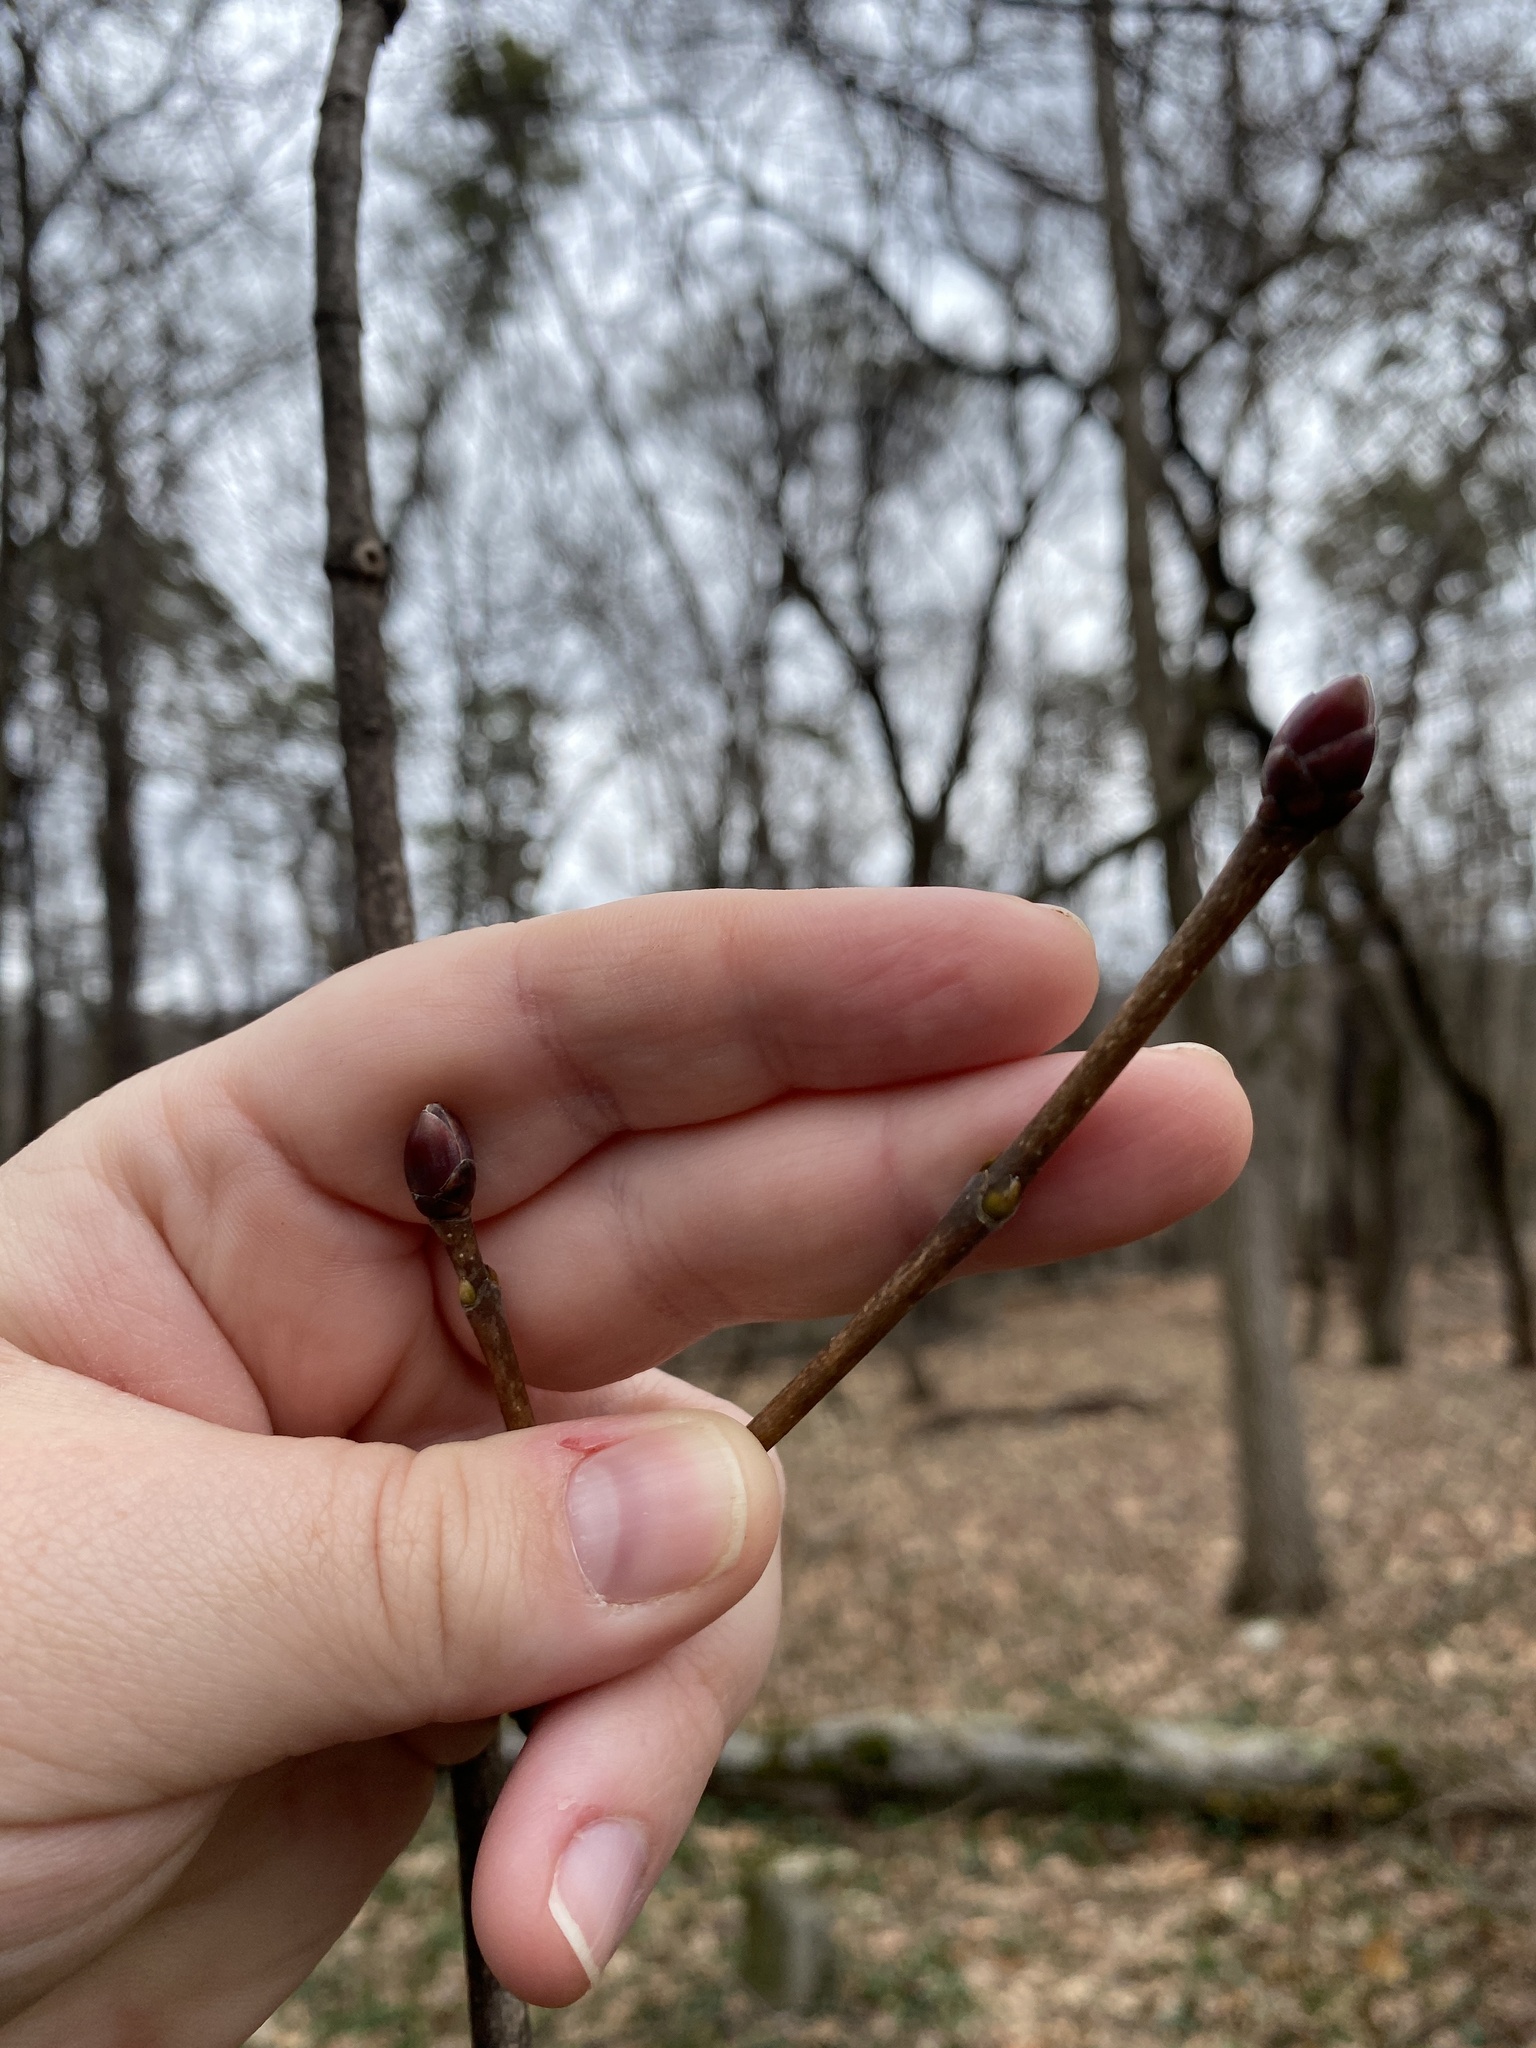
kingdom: Plantae
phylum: Tracheophyta
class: Magnoliopsida
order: Sapindales
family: Sapindaceae
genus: Acer
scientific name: Acer platanoides
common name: Norway maple
